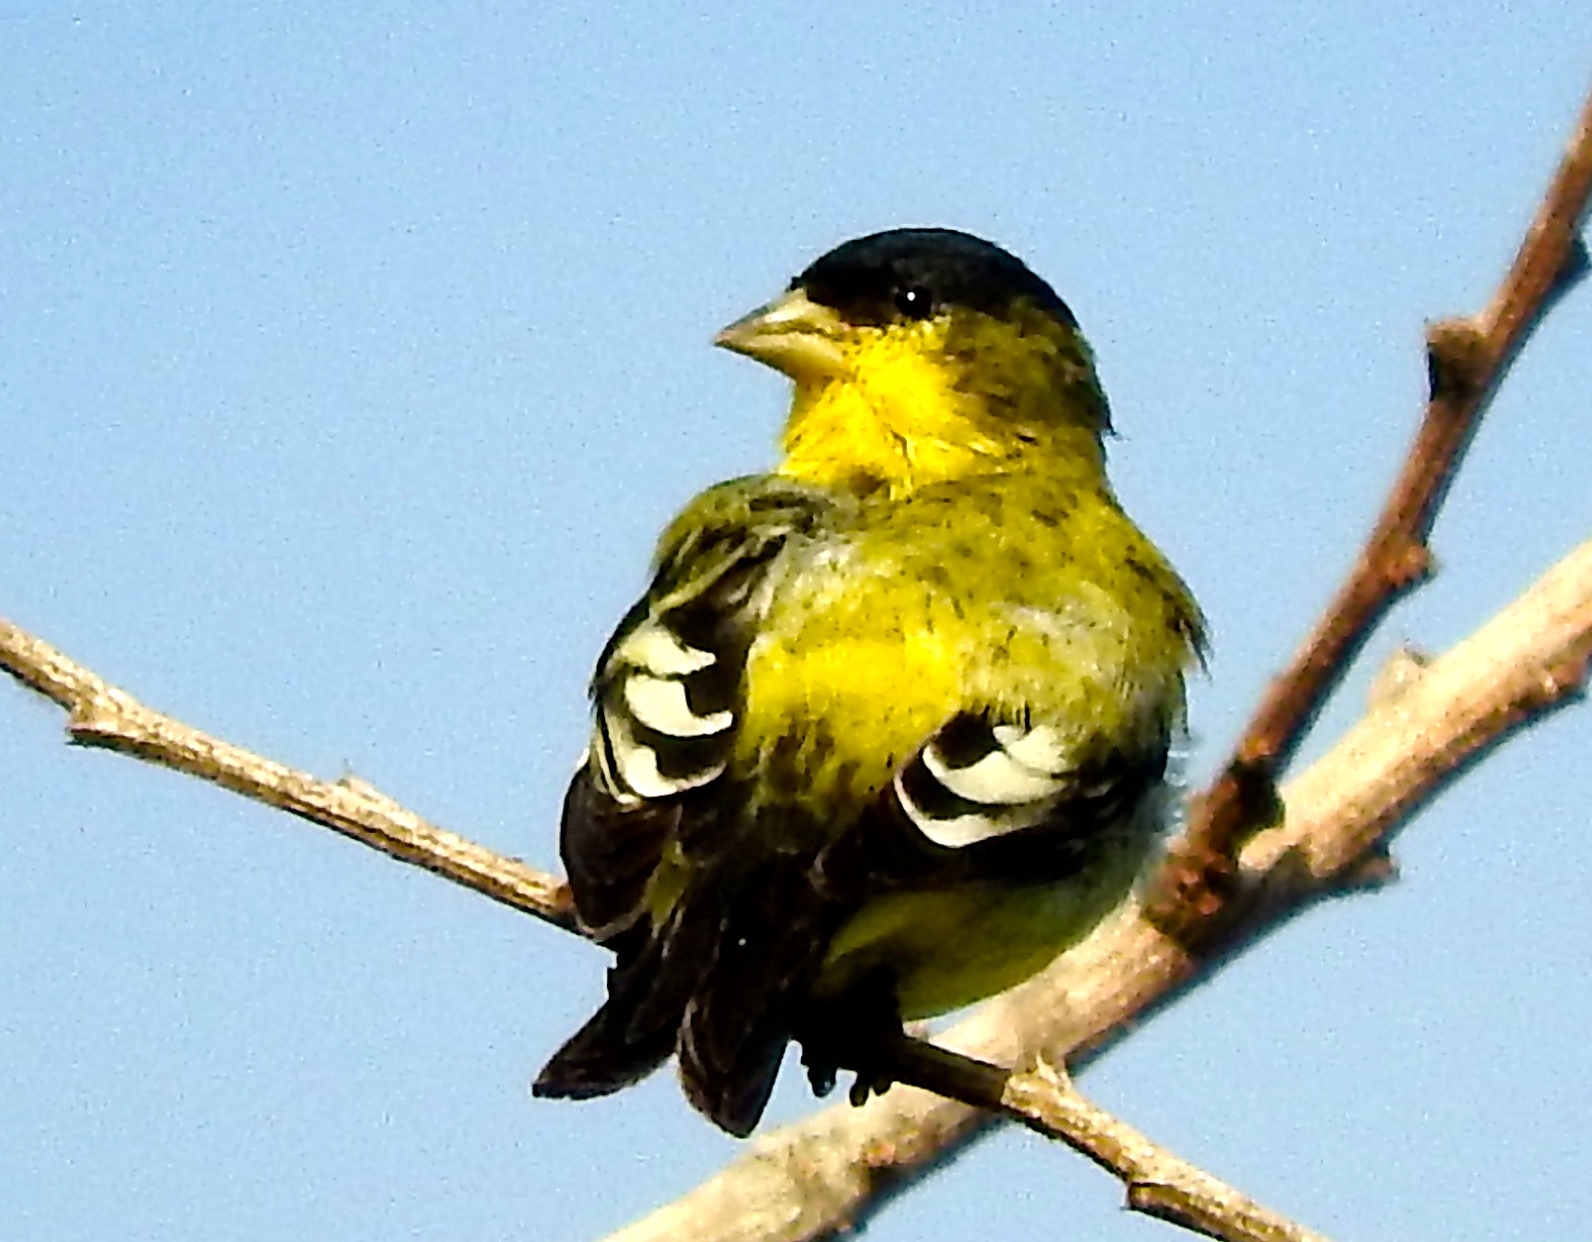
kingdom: Animalia
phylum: Chordata
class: Aves
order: Passeriformes
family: Fringillidae
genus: Spinus
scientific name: Spinus psaltria
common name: Lesser goldfinch
